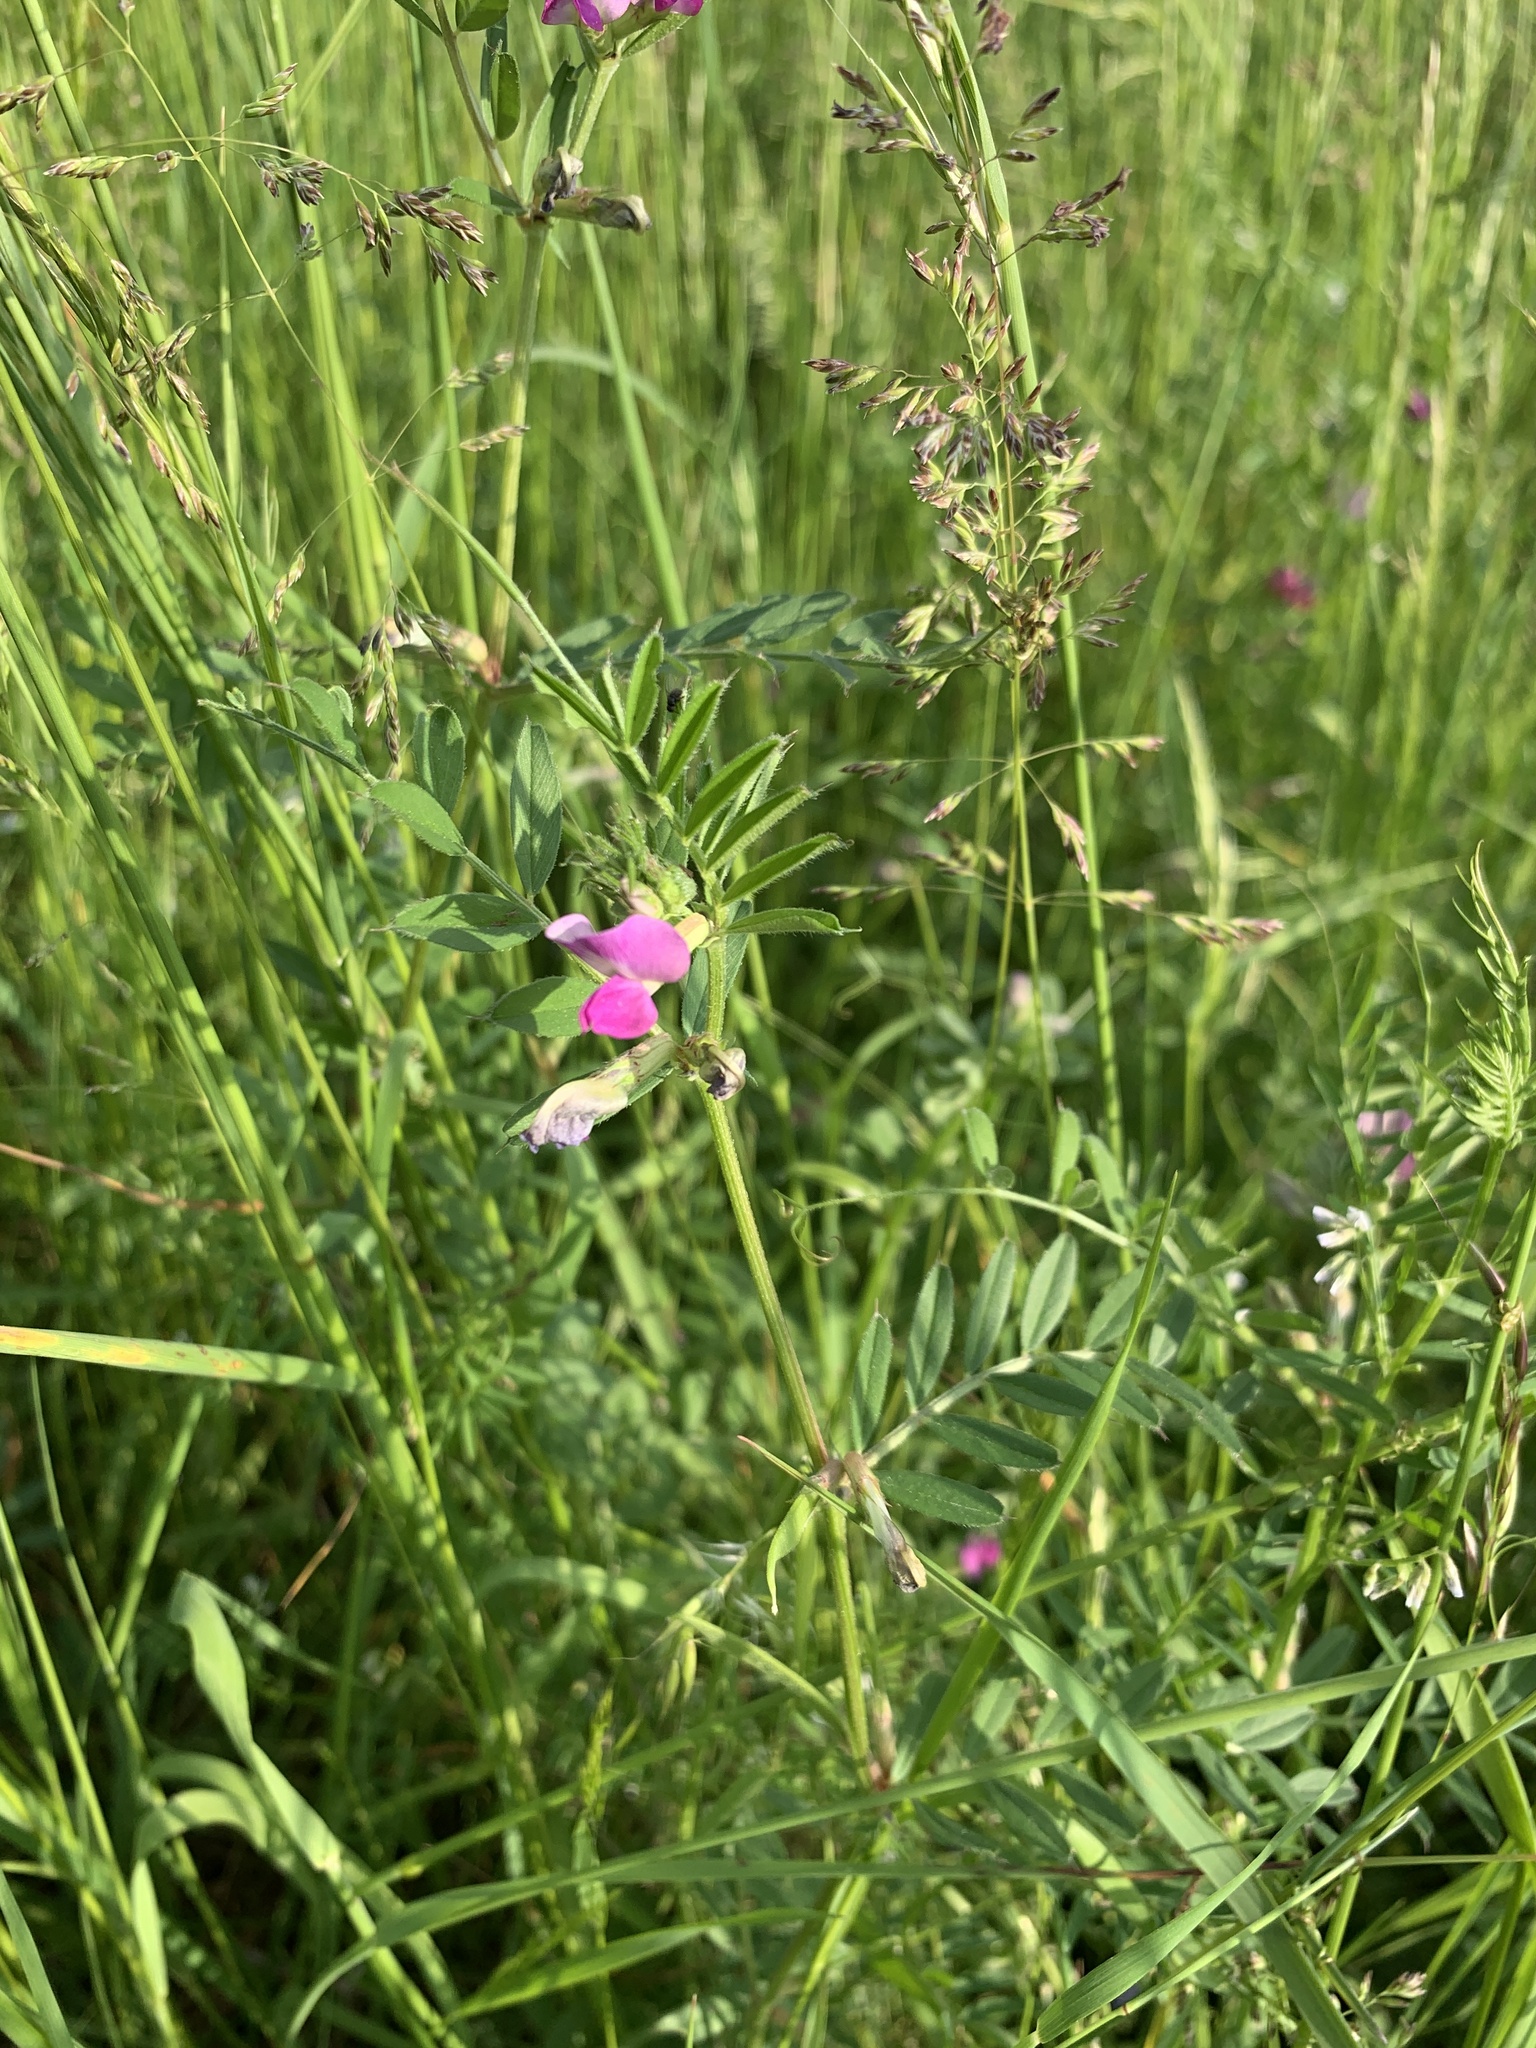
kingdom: Plantae
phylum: Tracheophyta
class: Magnoliopsida
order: Fabales
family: Fabaceae
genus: Vicia
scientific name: Vicia sativa
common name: Garden vetch
